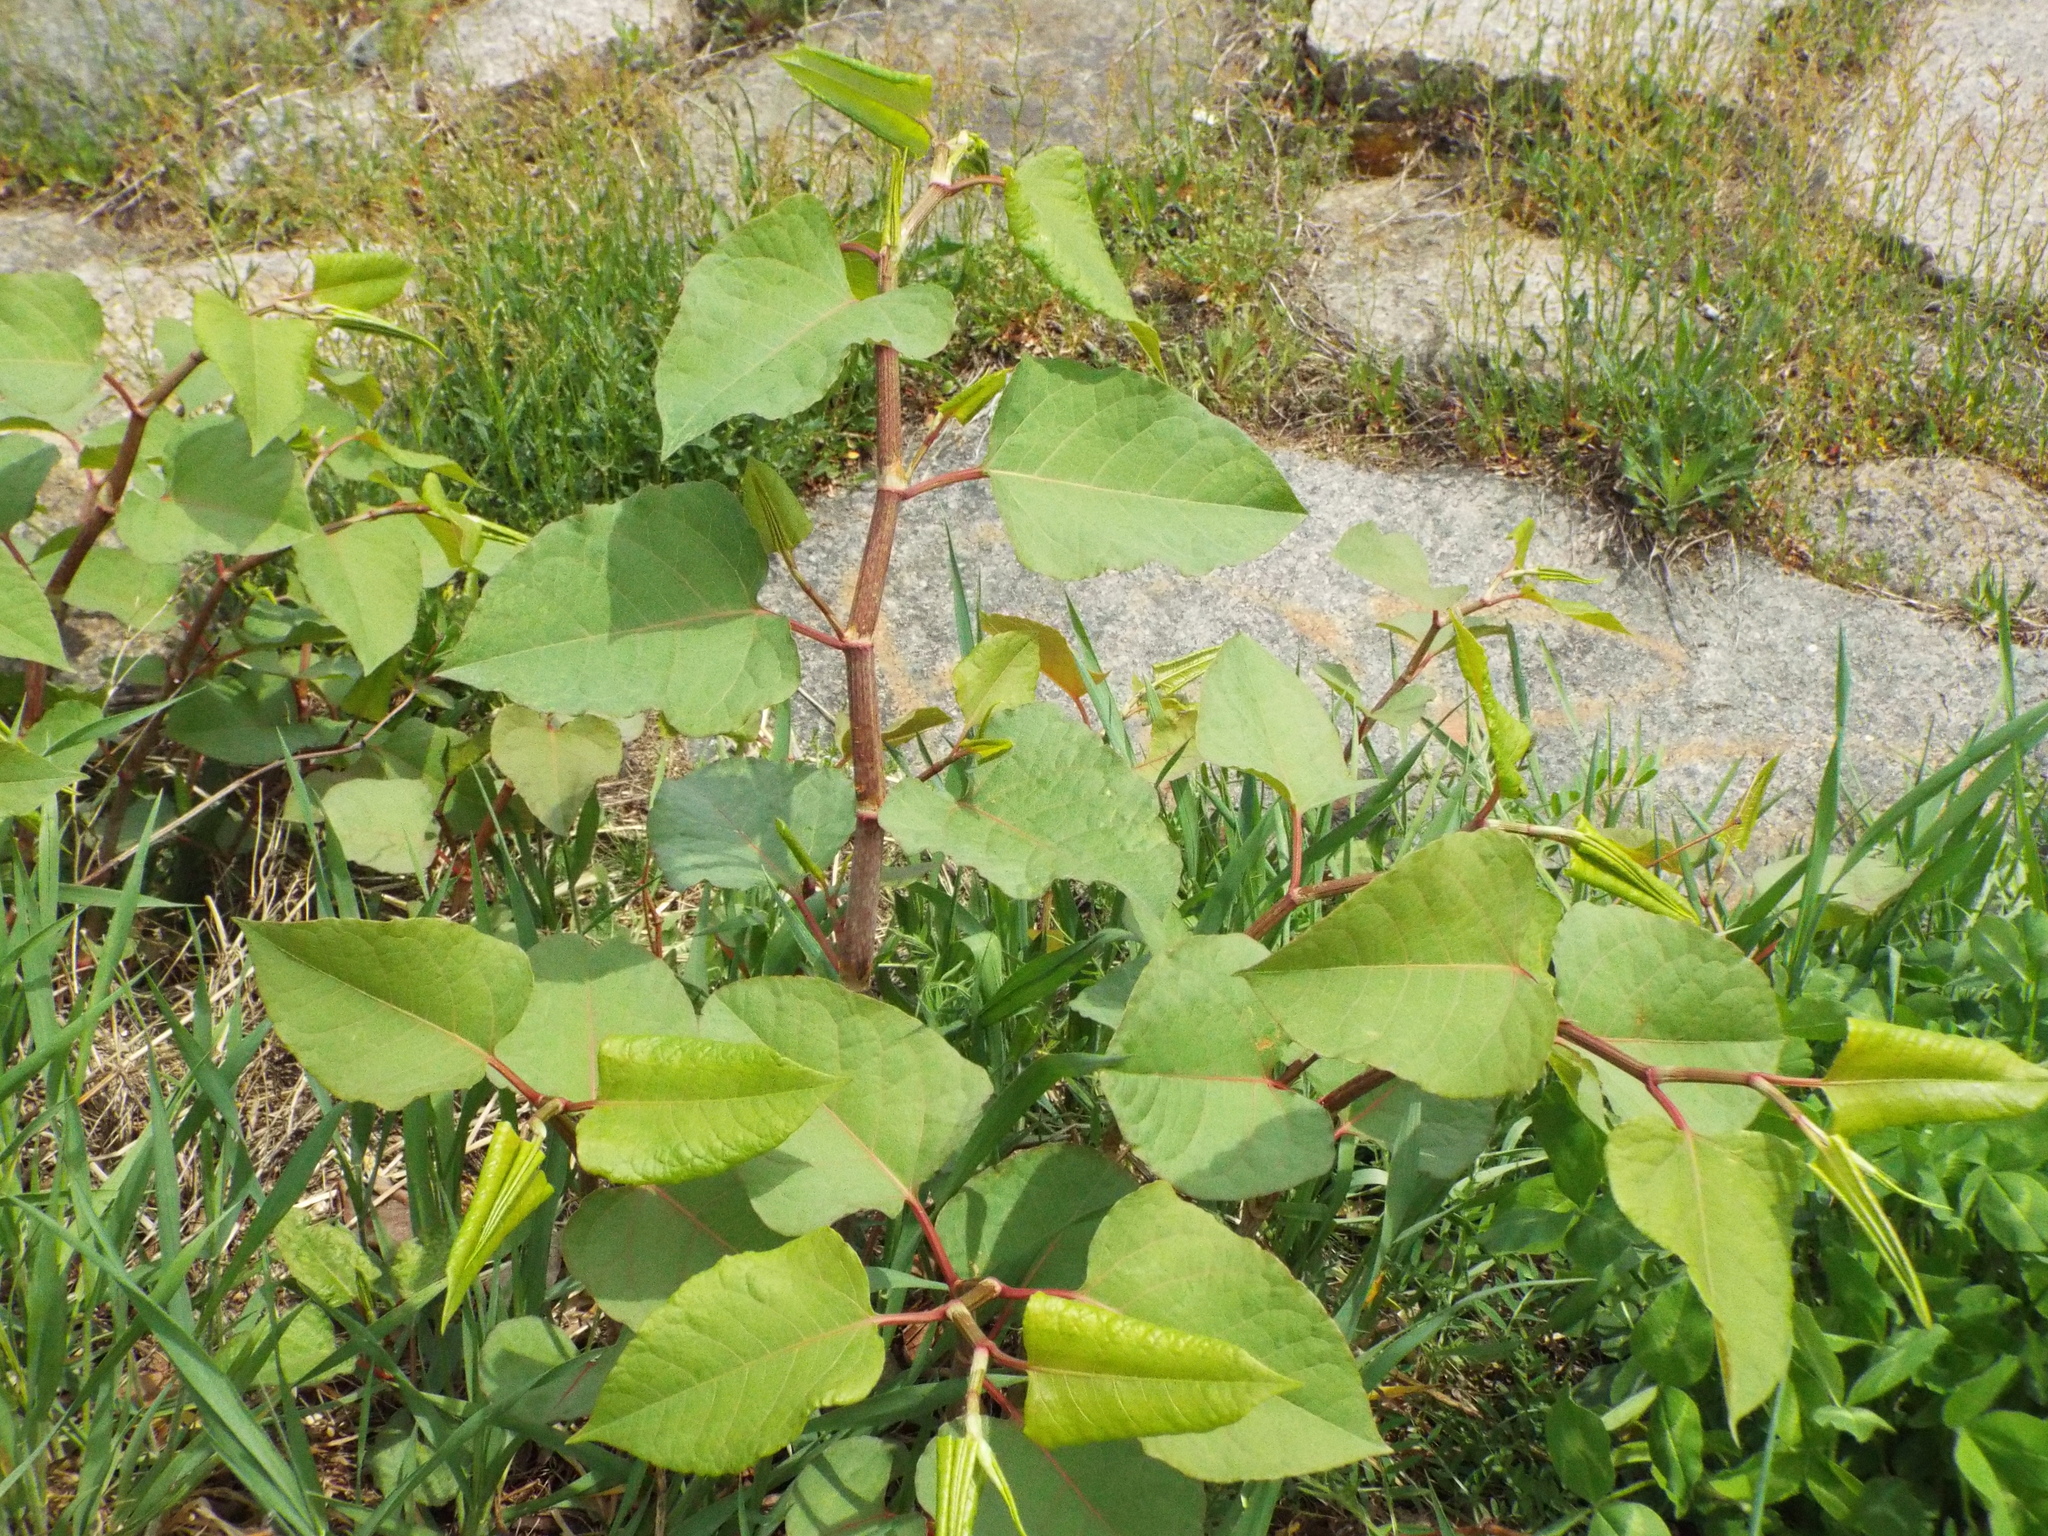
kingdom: Plantae
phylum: Tracheophyta
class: Magnoliopsida
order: Caryophyllales
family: Polygonaceae
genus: Reynoutria
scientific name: Reynoutria japonica
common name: Japanese knotweed
